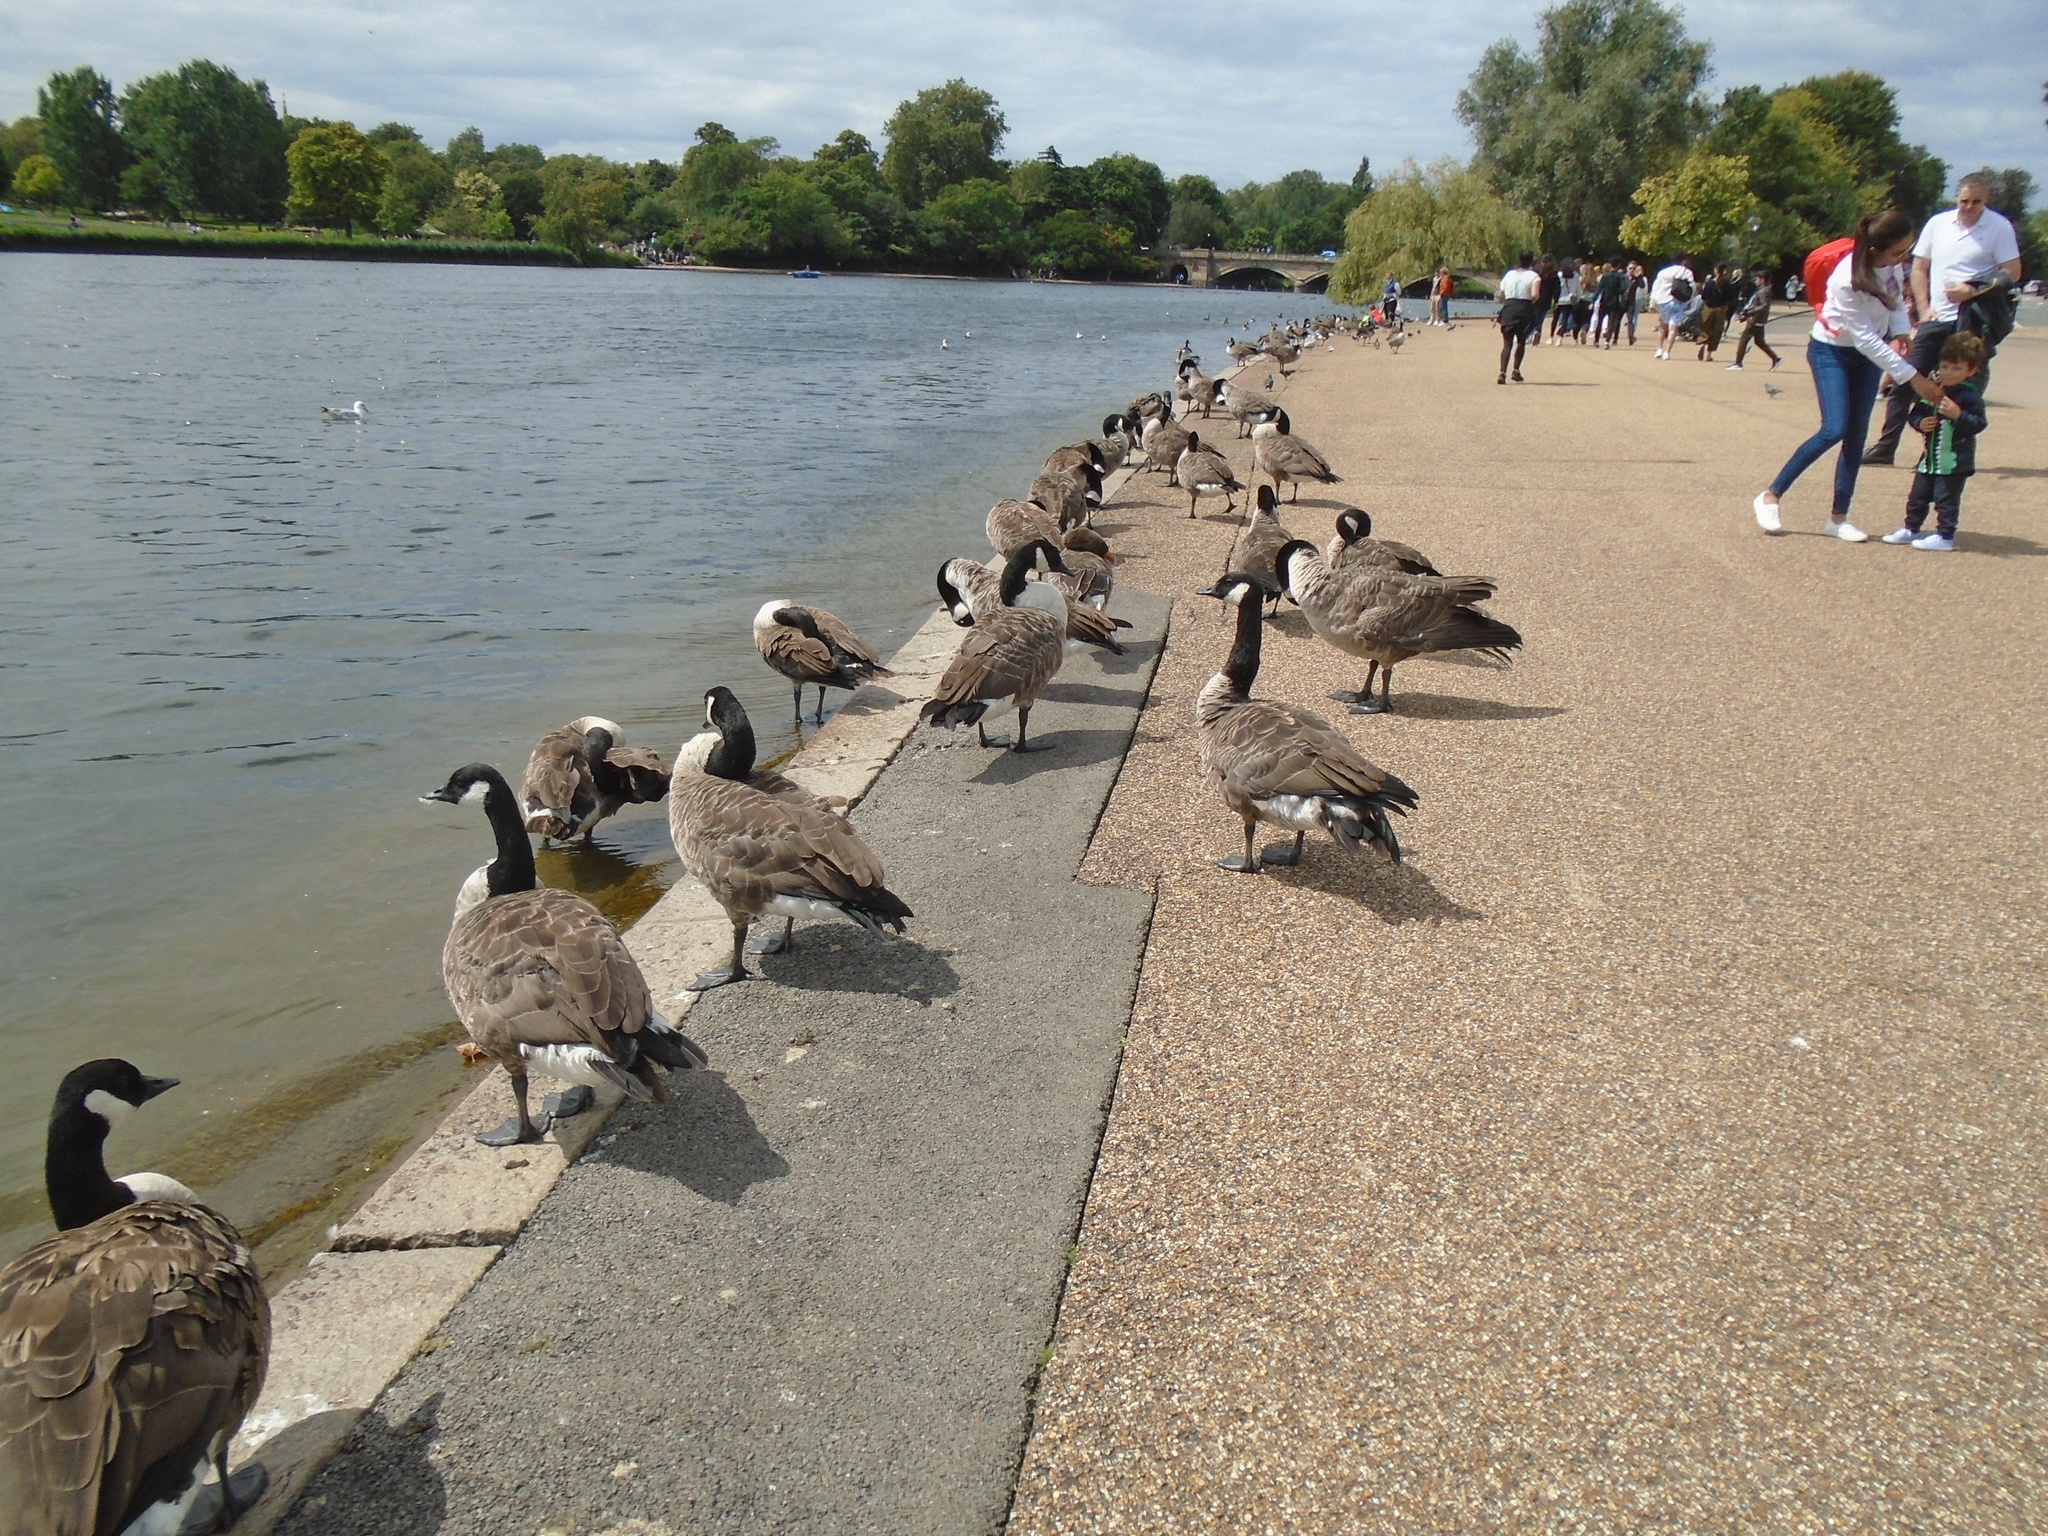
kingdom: Animalia
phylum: Chordata
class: Aves
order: Anseriformes
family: Anatidae
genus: Branta
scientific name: Branta canadensis
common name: Canada goose
